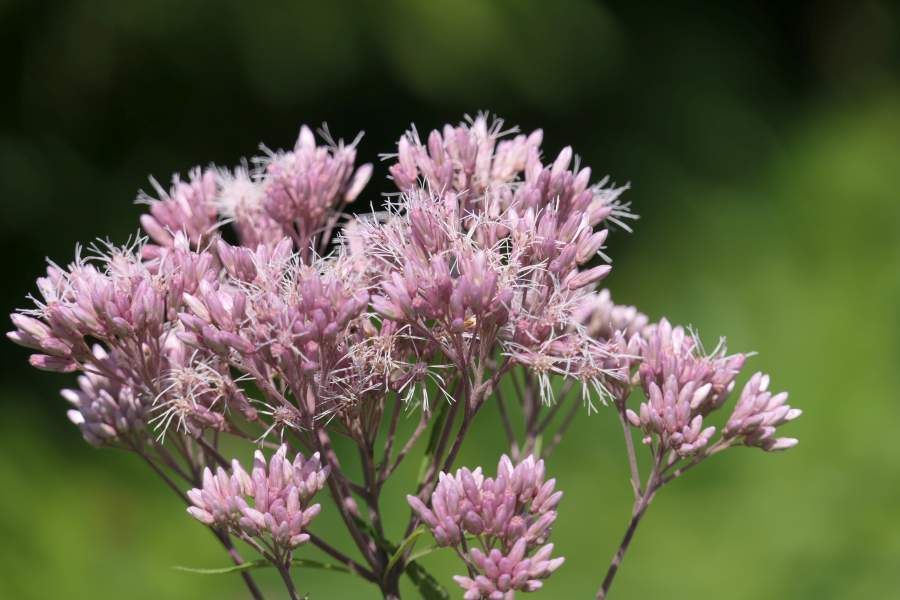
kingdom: Plantae
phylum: Tracheophyta
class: Magnoliopsida
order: Asterales
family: Asteraceae
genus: Eutrochium
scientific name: Eutrochium maculatum
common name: Spotted joe pye weed
